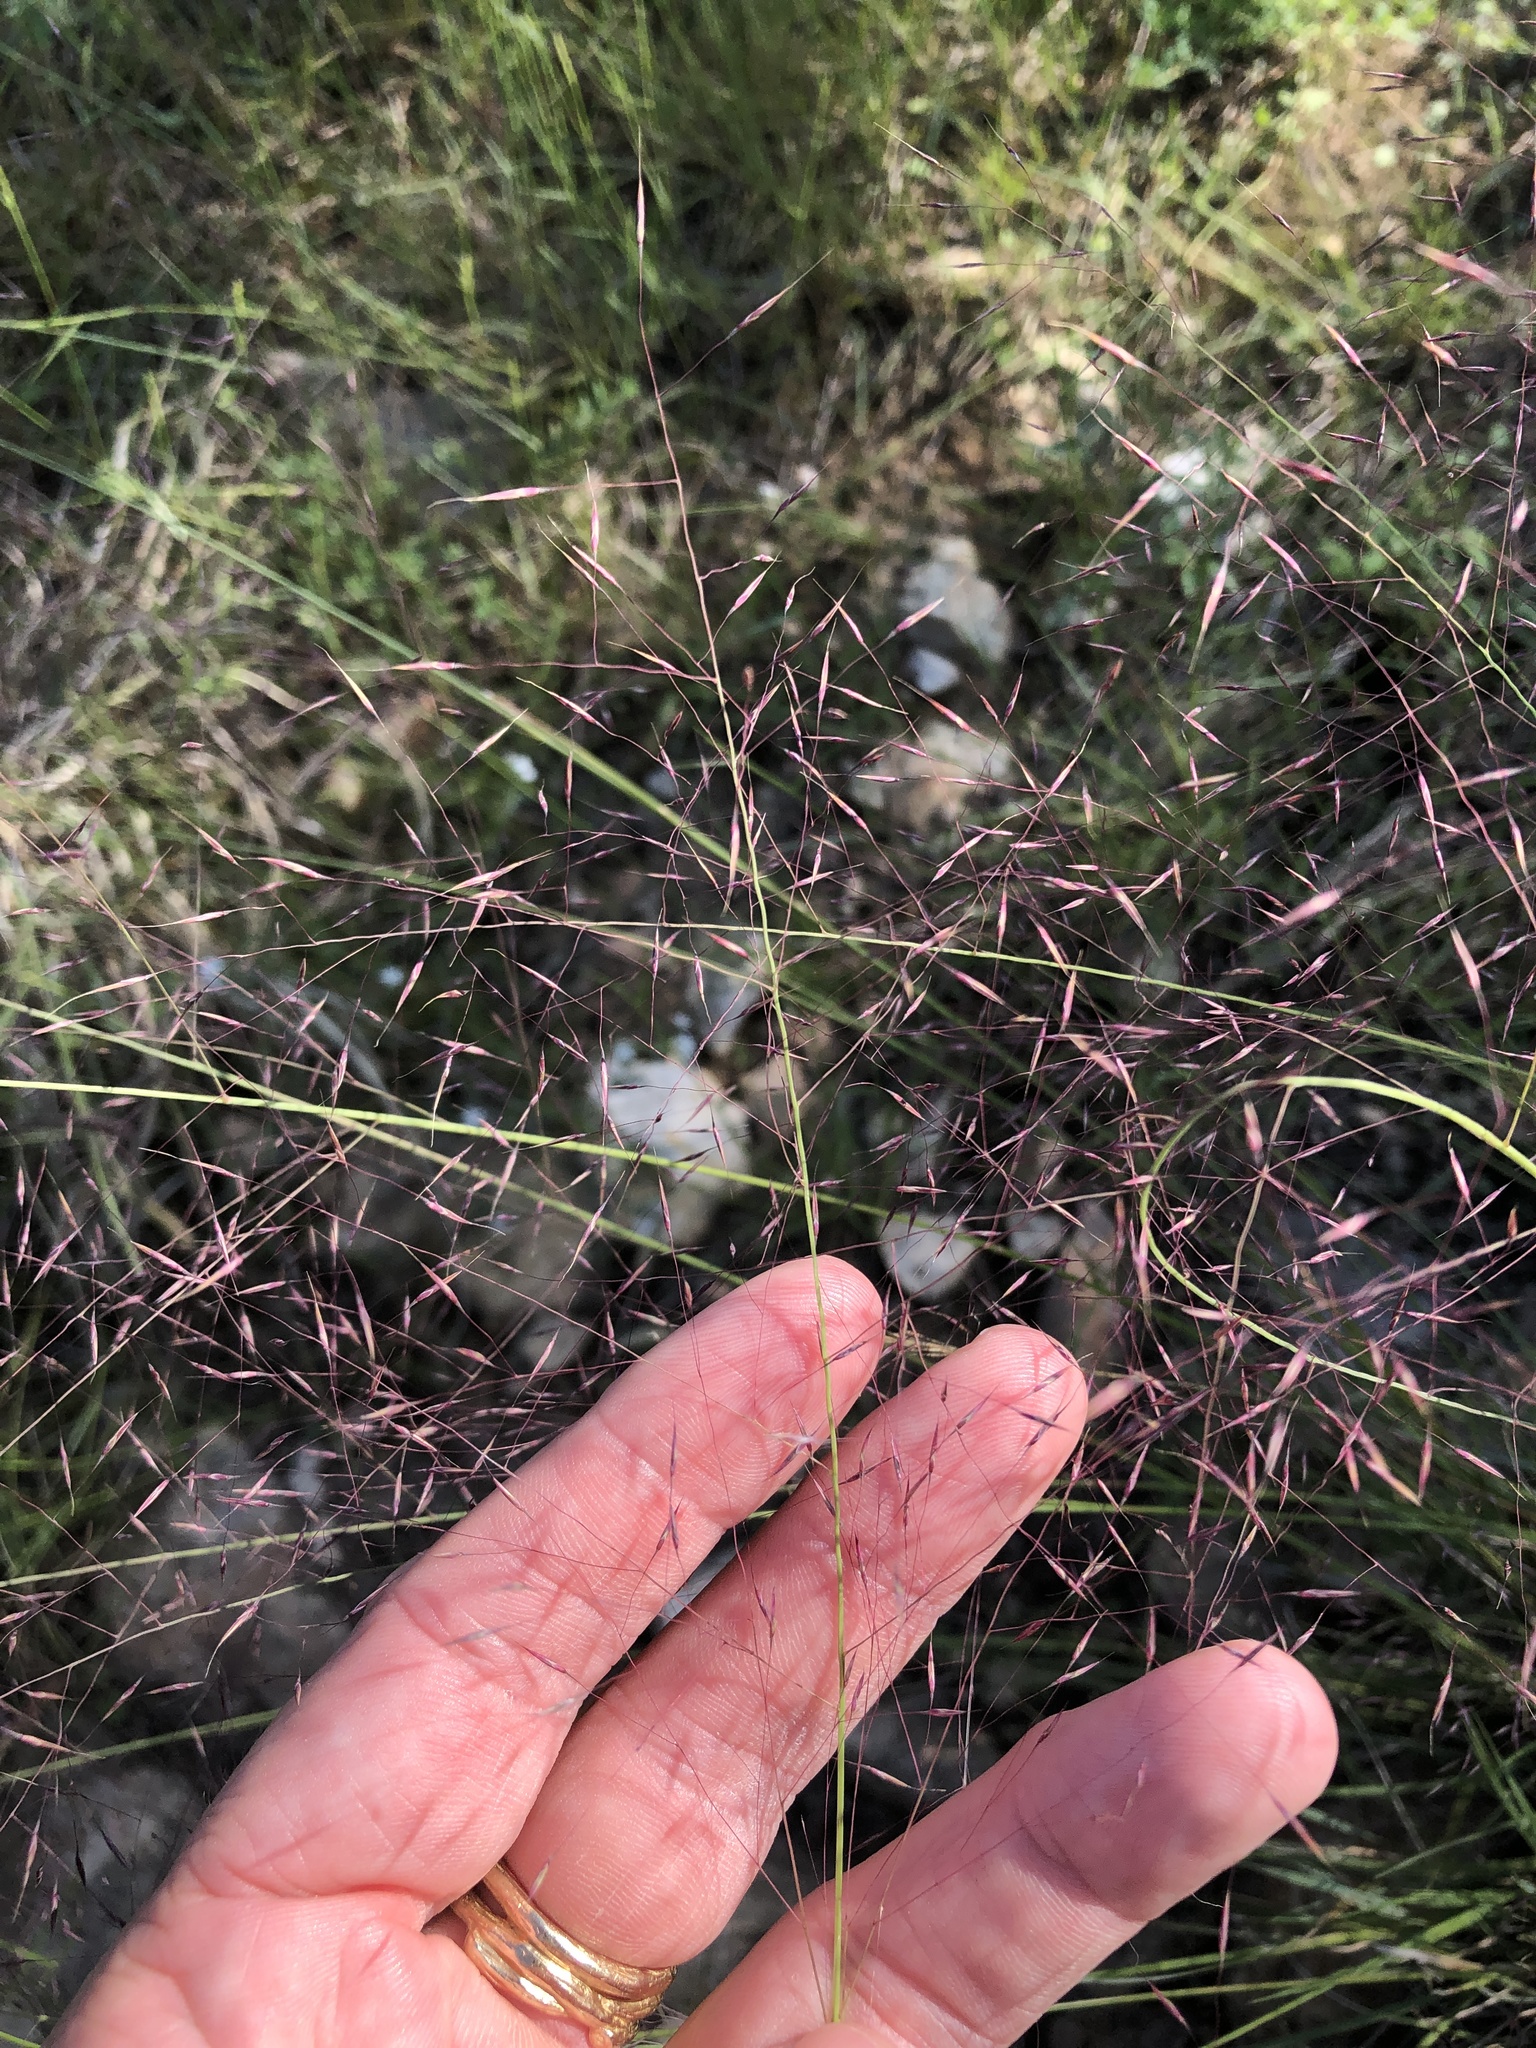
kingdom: Plantae
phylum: Tracheophyta
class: Liliopsida
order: Poales
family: Poaceae
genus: Muhlenbergia
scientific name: Muhlenbergia reverchonii
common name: Seep muhly
